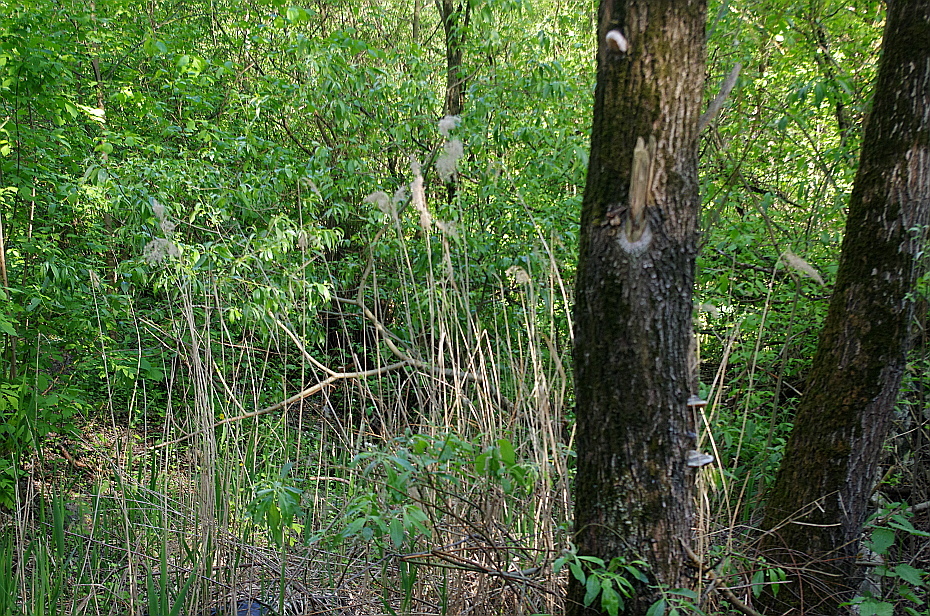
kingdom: Plantae
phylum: Tracheophyta
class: Liliopsida
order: Poales
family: Poaceae
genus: Phragmites
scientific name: Phragmites australis
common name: Common reed
